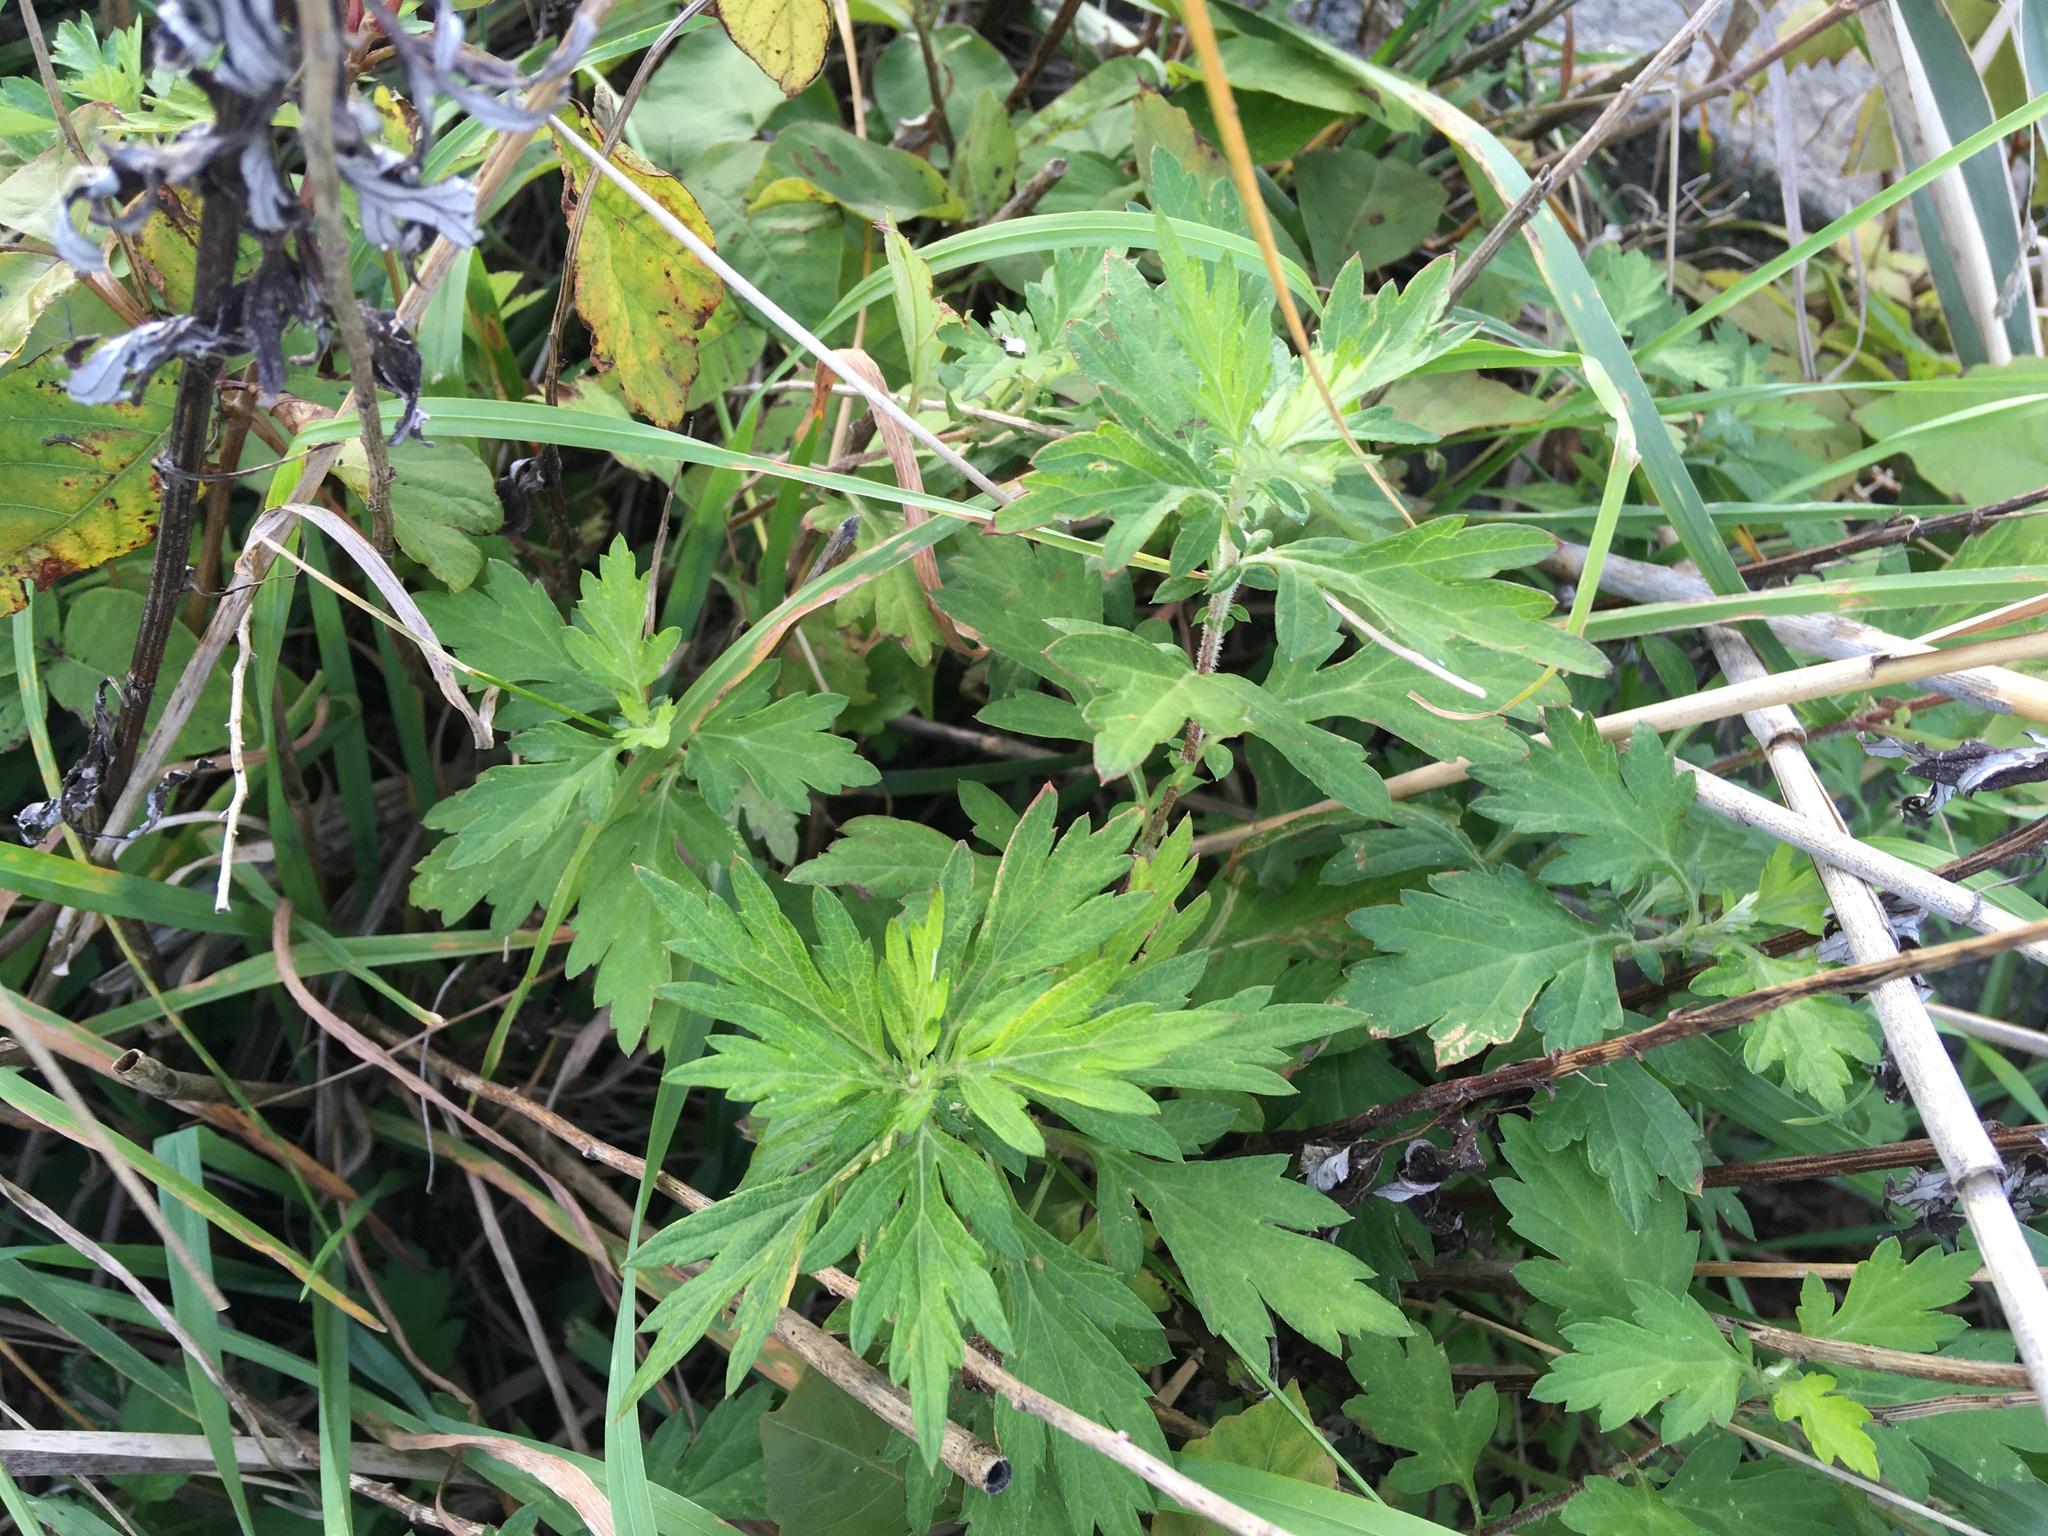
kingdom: Plantae
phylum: Tracheophyta
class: Magnoliopsida
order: Asterales
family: Asteraceae
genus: Artemisia
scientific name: Artemisia vulgaris
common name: Mugwort
